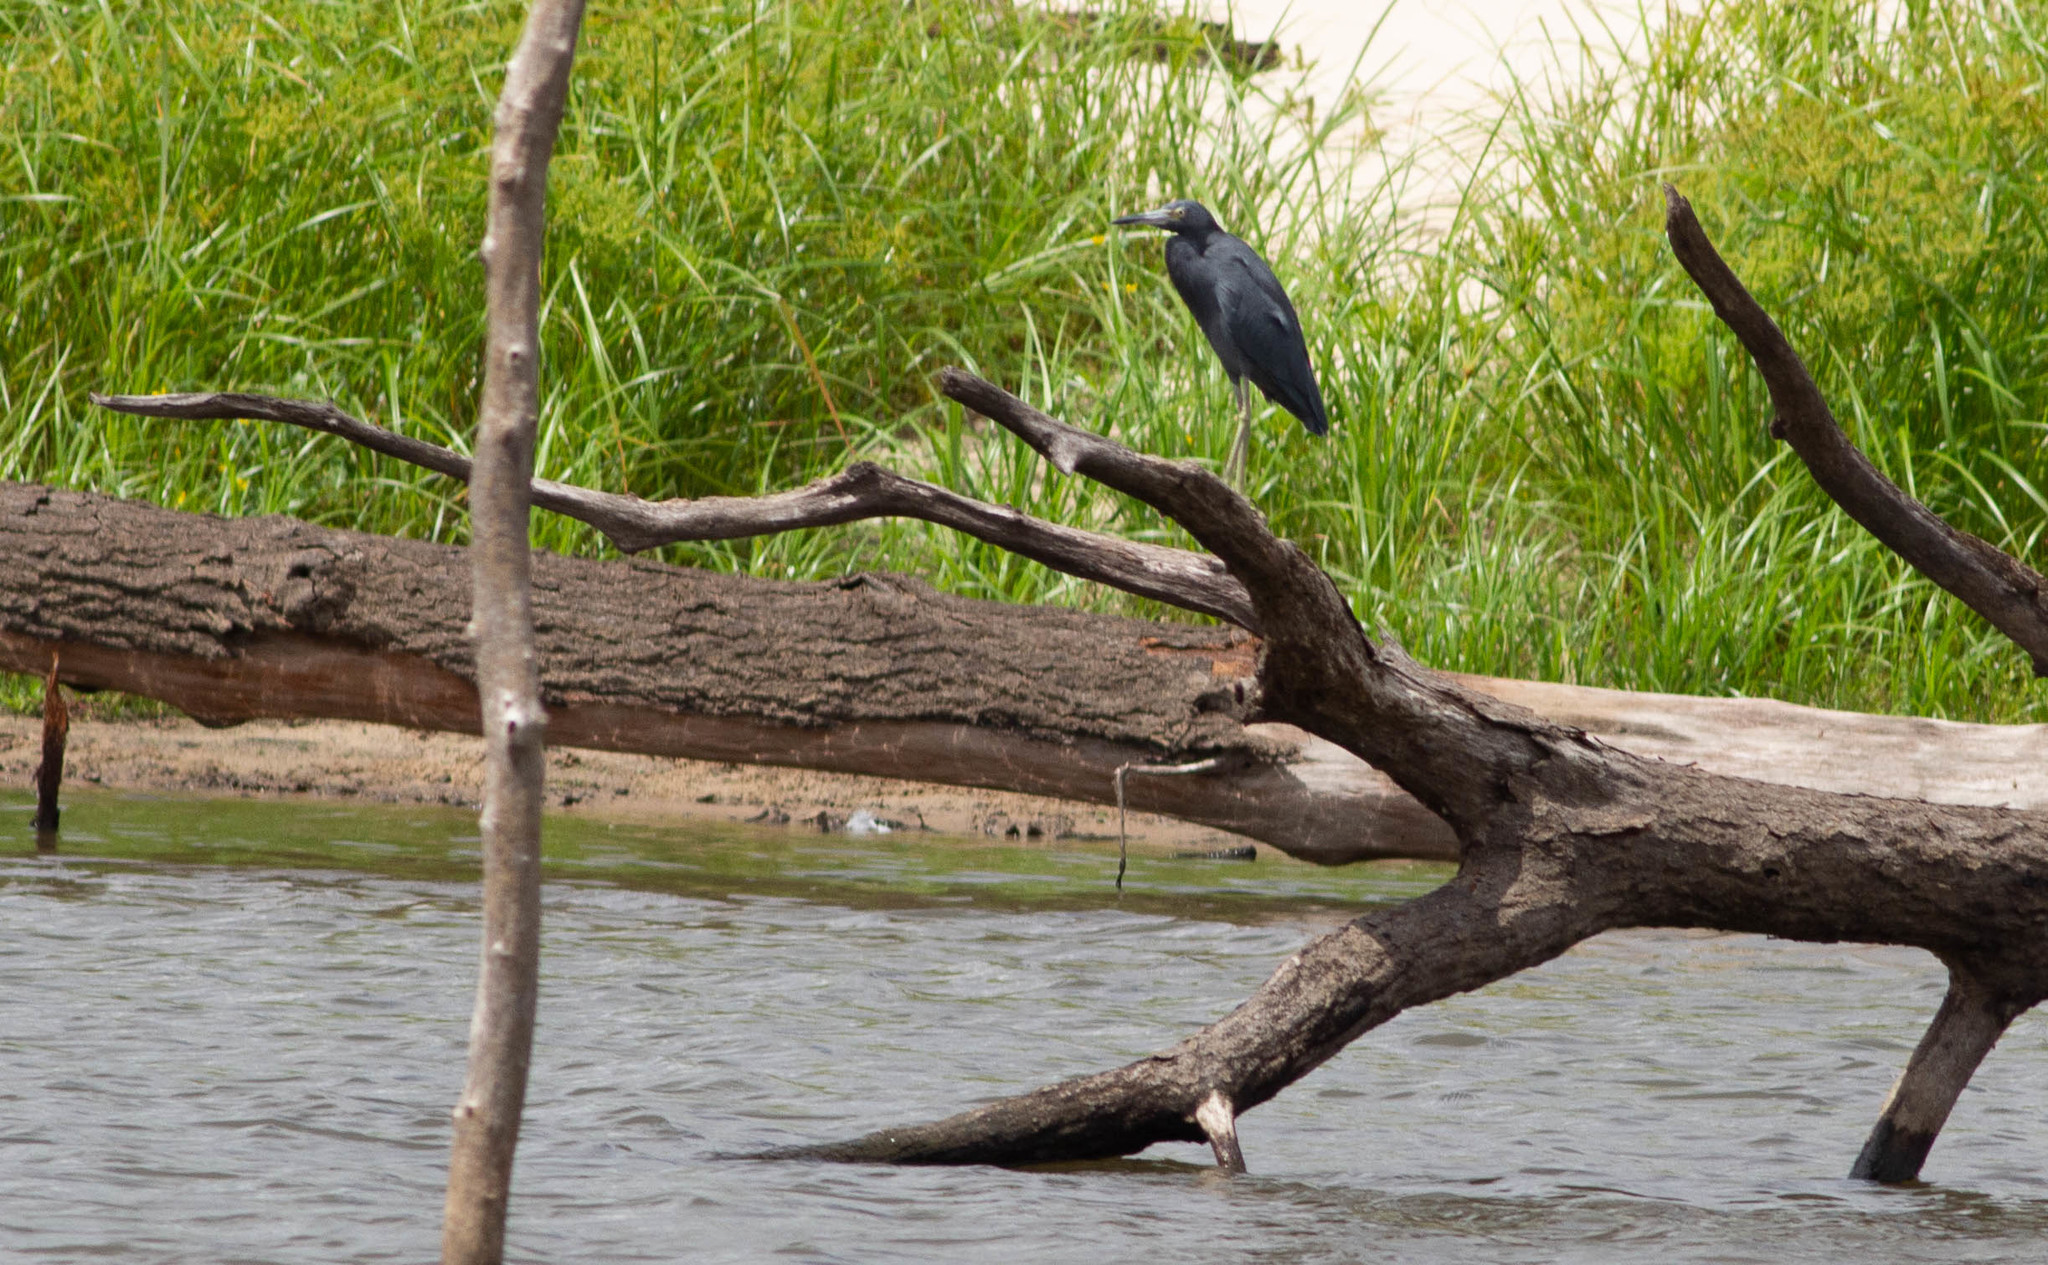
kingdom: Animalia
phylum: Chordata
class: Aves
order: Pelecaniformes
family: Ardeidae
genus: Egretta
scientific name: Egretta caerulea
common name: Little blue heron
